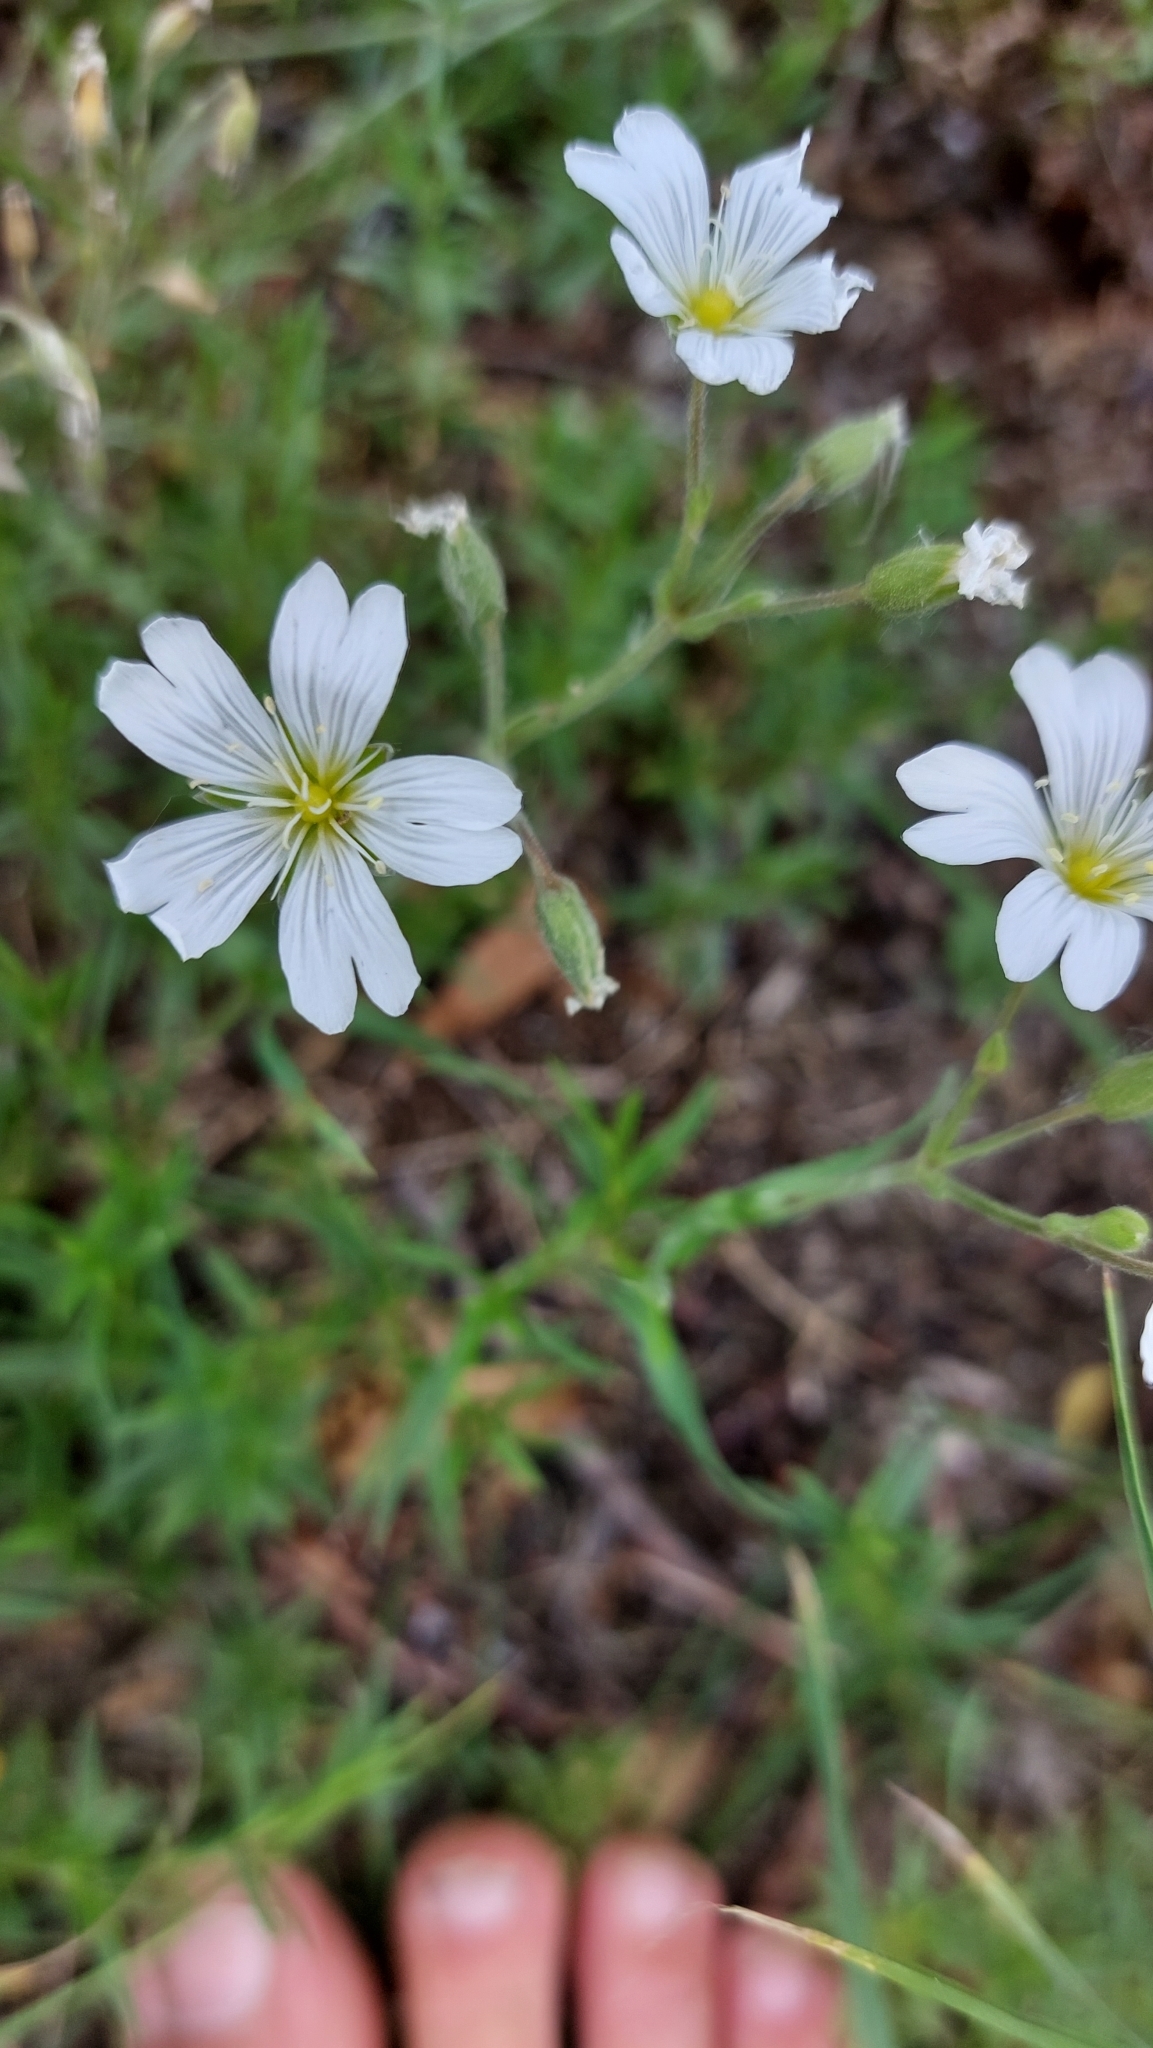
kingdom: Plantae
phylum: Tracheophyta
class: Magnoliopsida
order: Caryophyllales
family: Caryophyllaceae
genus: Cerastium
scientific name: Cerastium arvense
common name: Field mouse-ear
